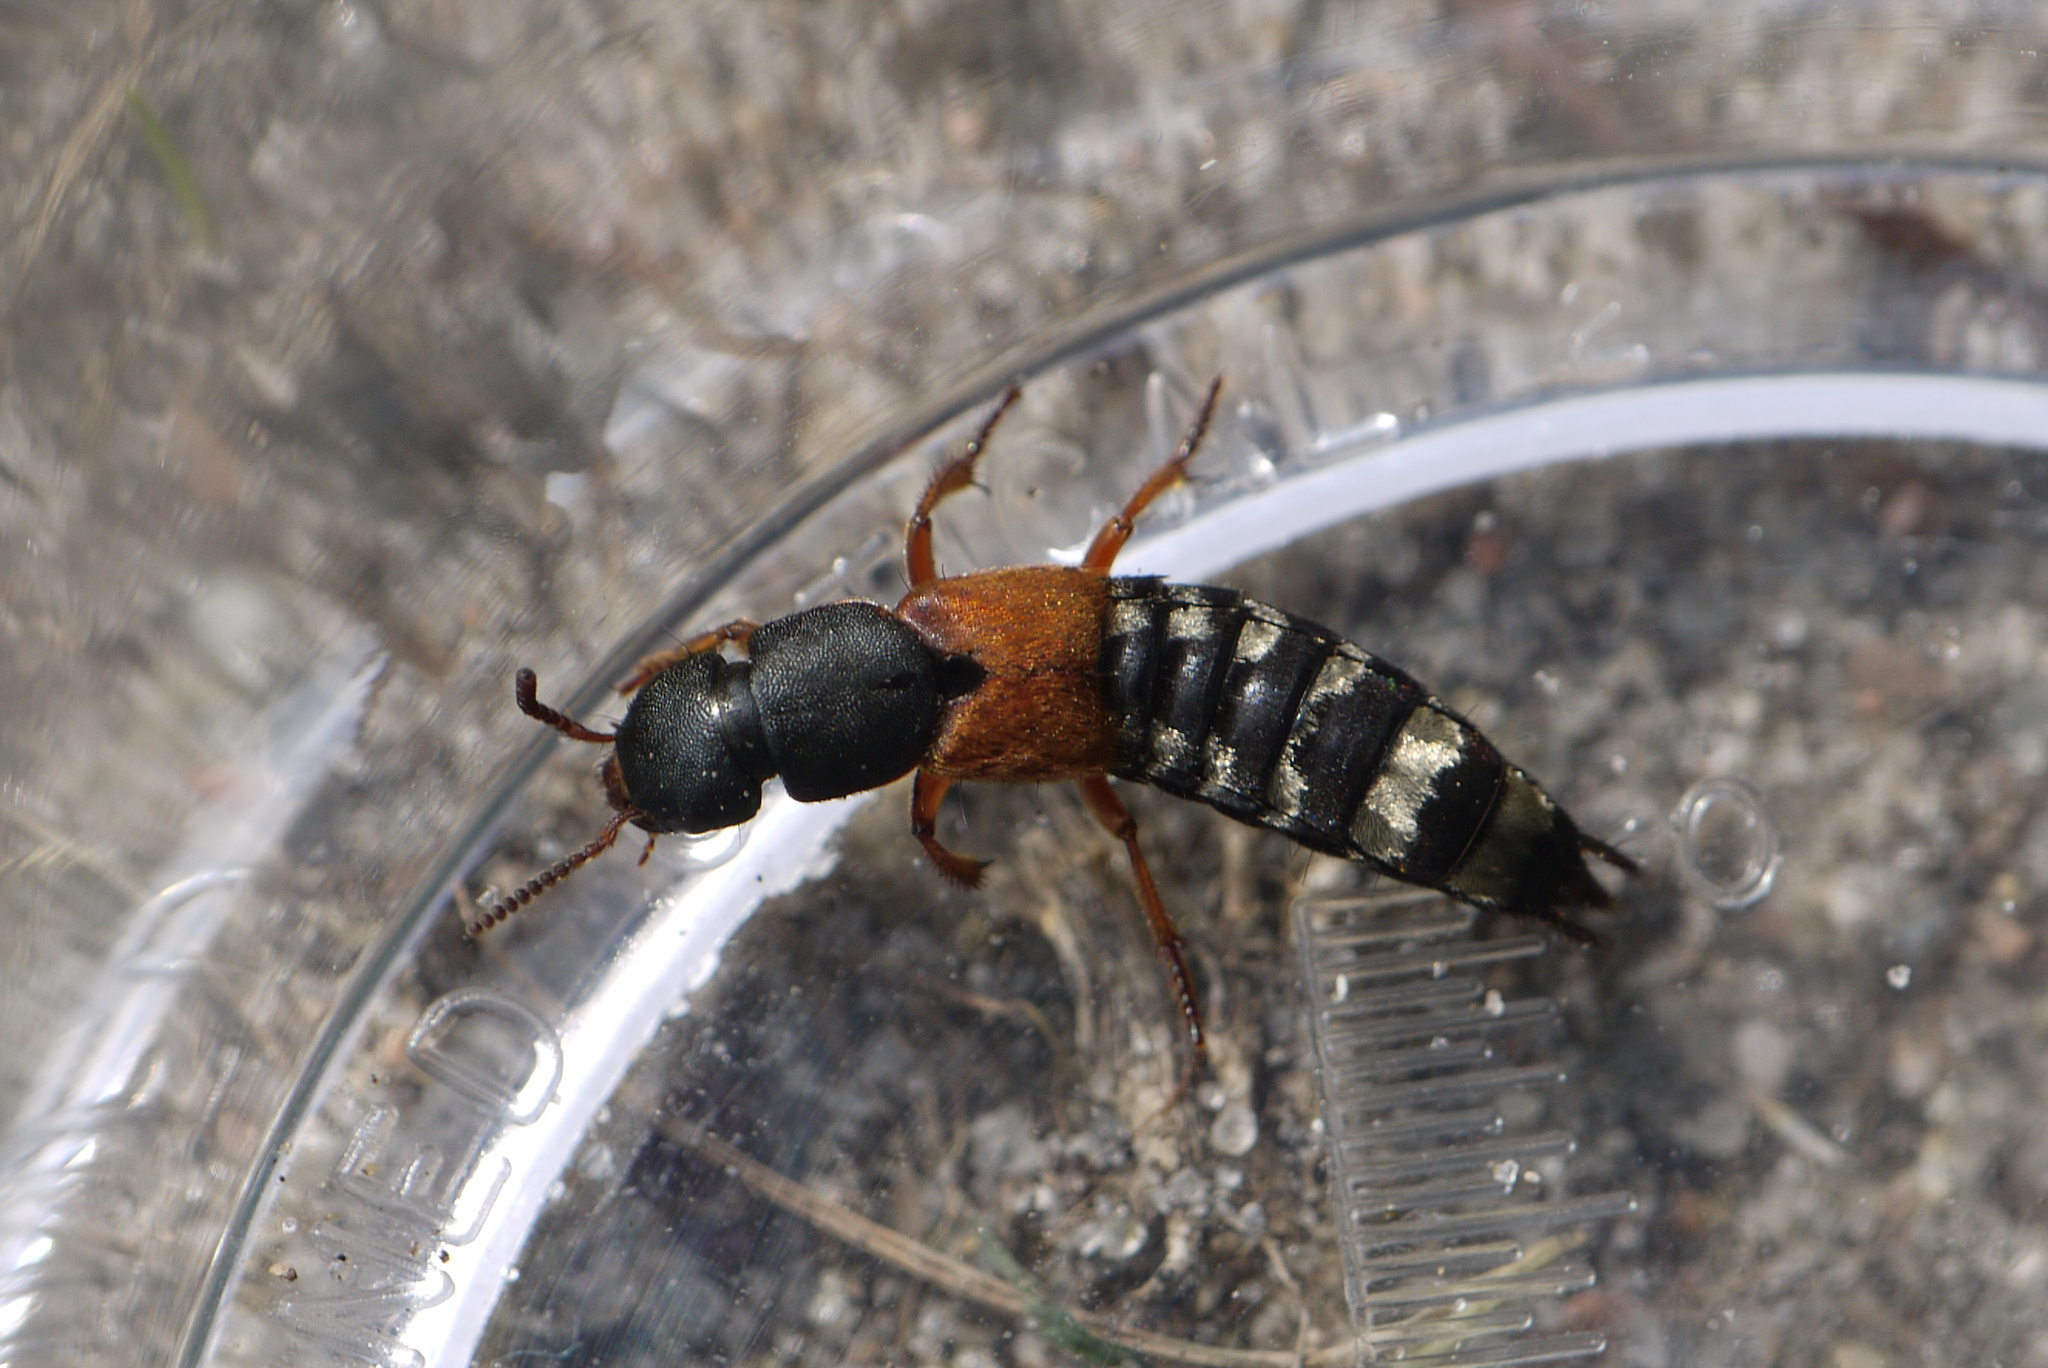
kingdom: Animalia
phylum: Arthropoda
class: Insecta
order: Coleoptera
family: Staphylinidae
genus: Platydracus
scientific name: Platydracus stercorarius
